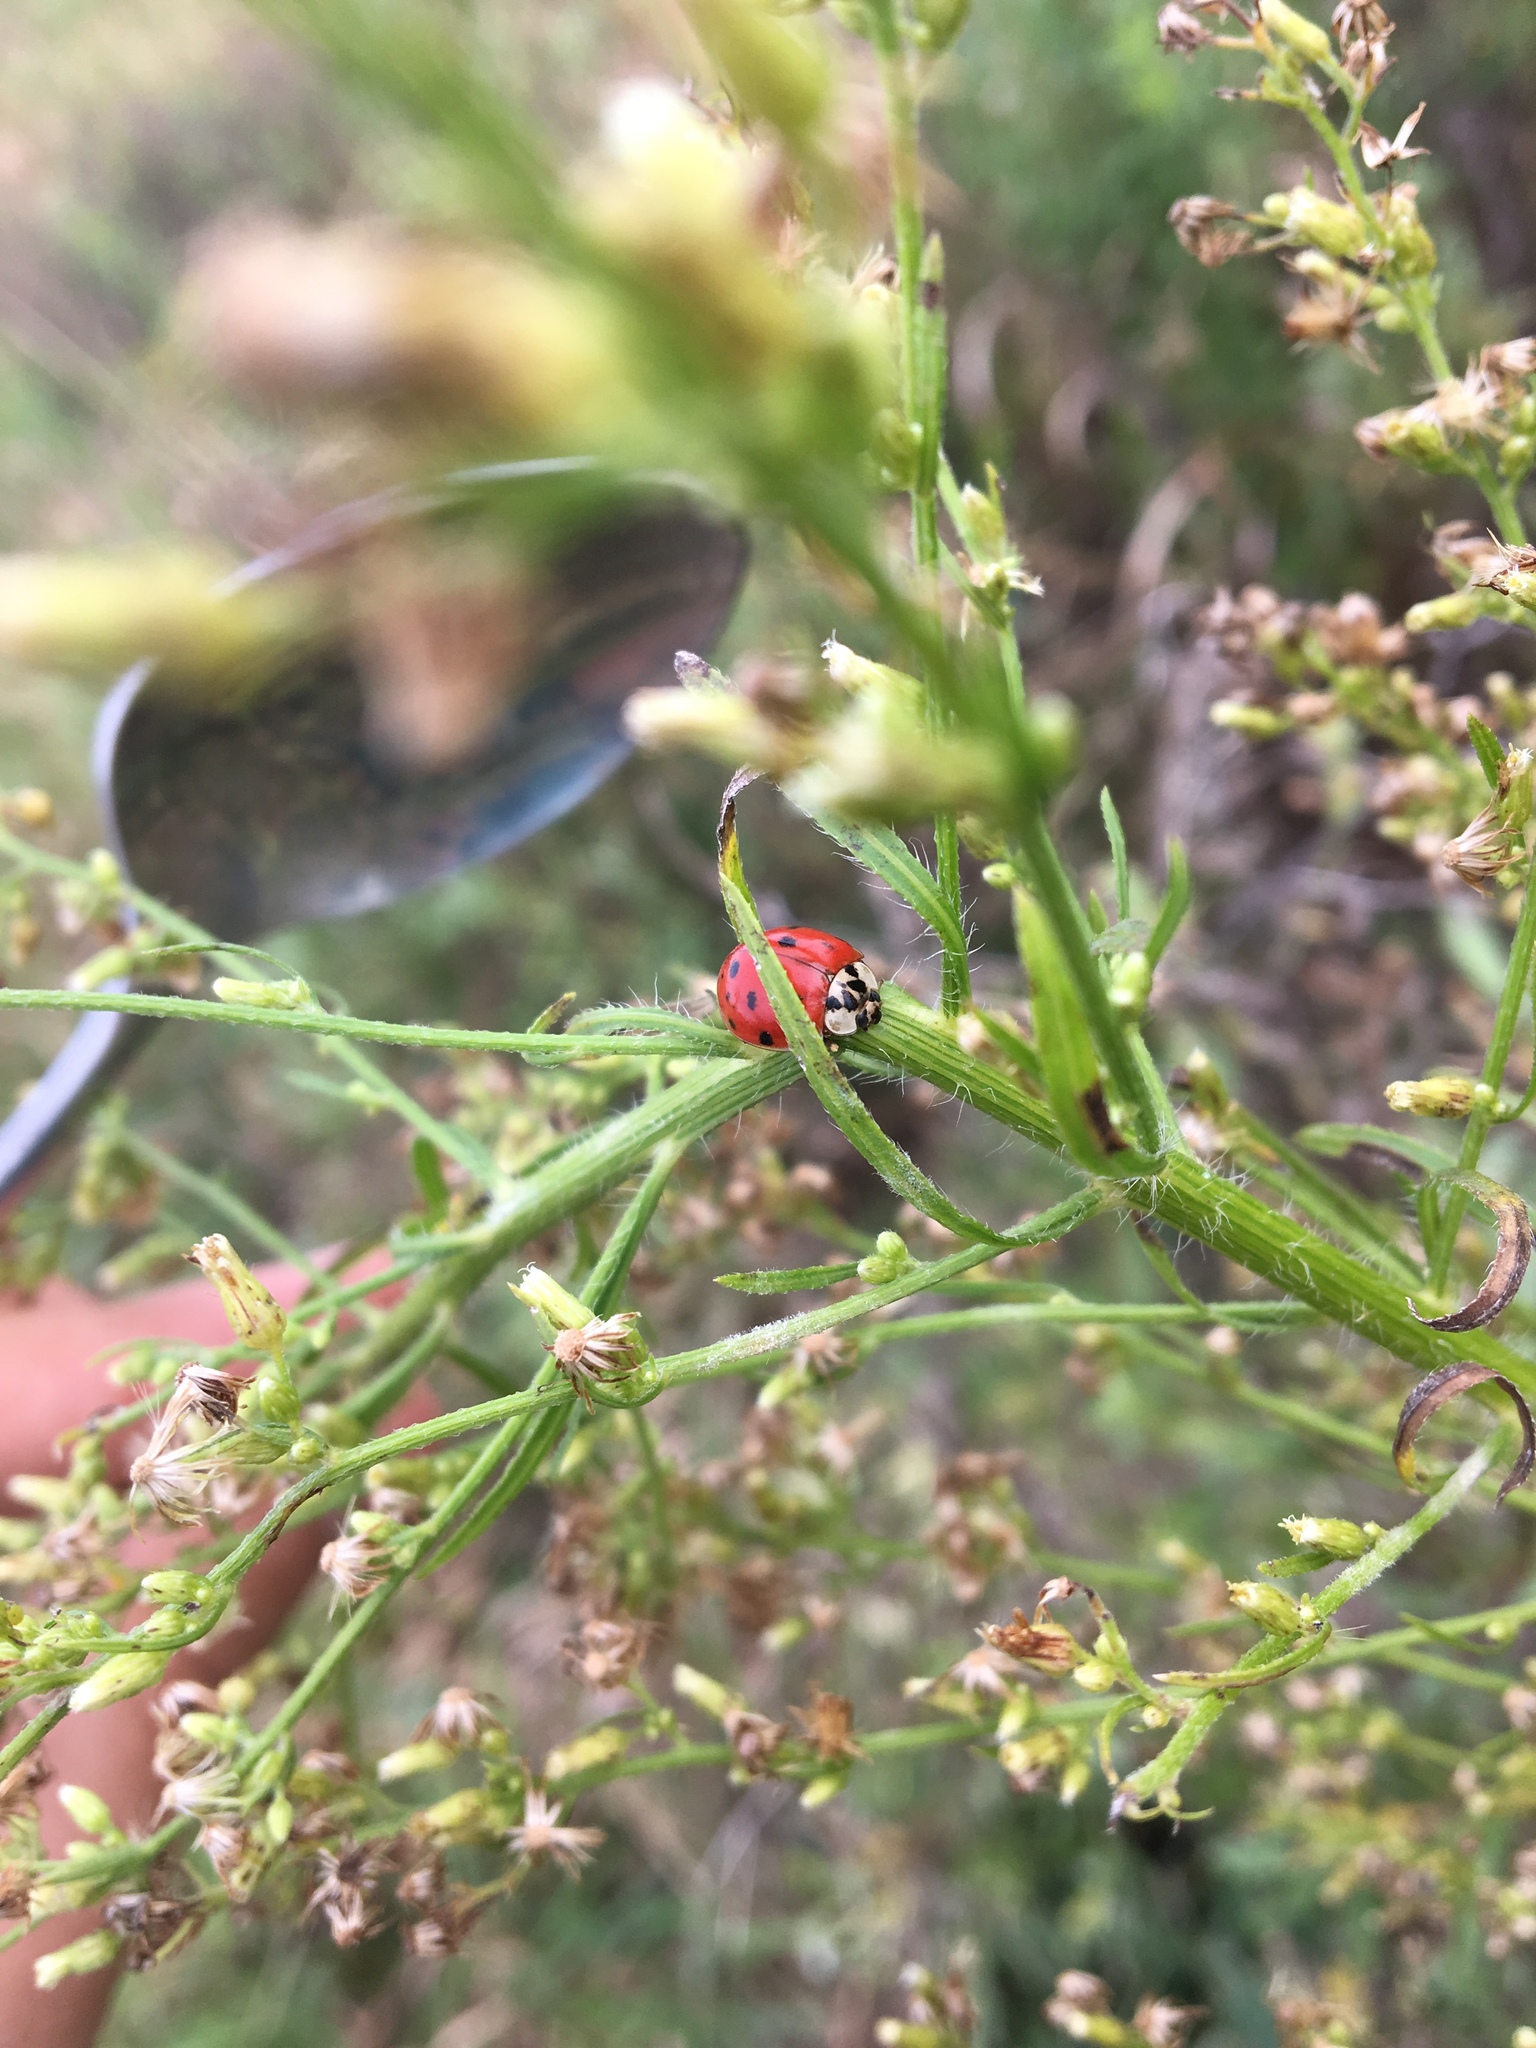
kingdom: Animalia
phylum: Arthropoda
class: Insecta
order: Coleoptera
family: Coccinellidae
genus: Harmonia
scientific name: Harmonia axyridis
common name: Harlequin ladybird
